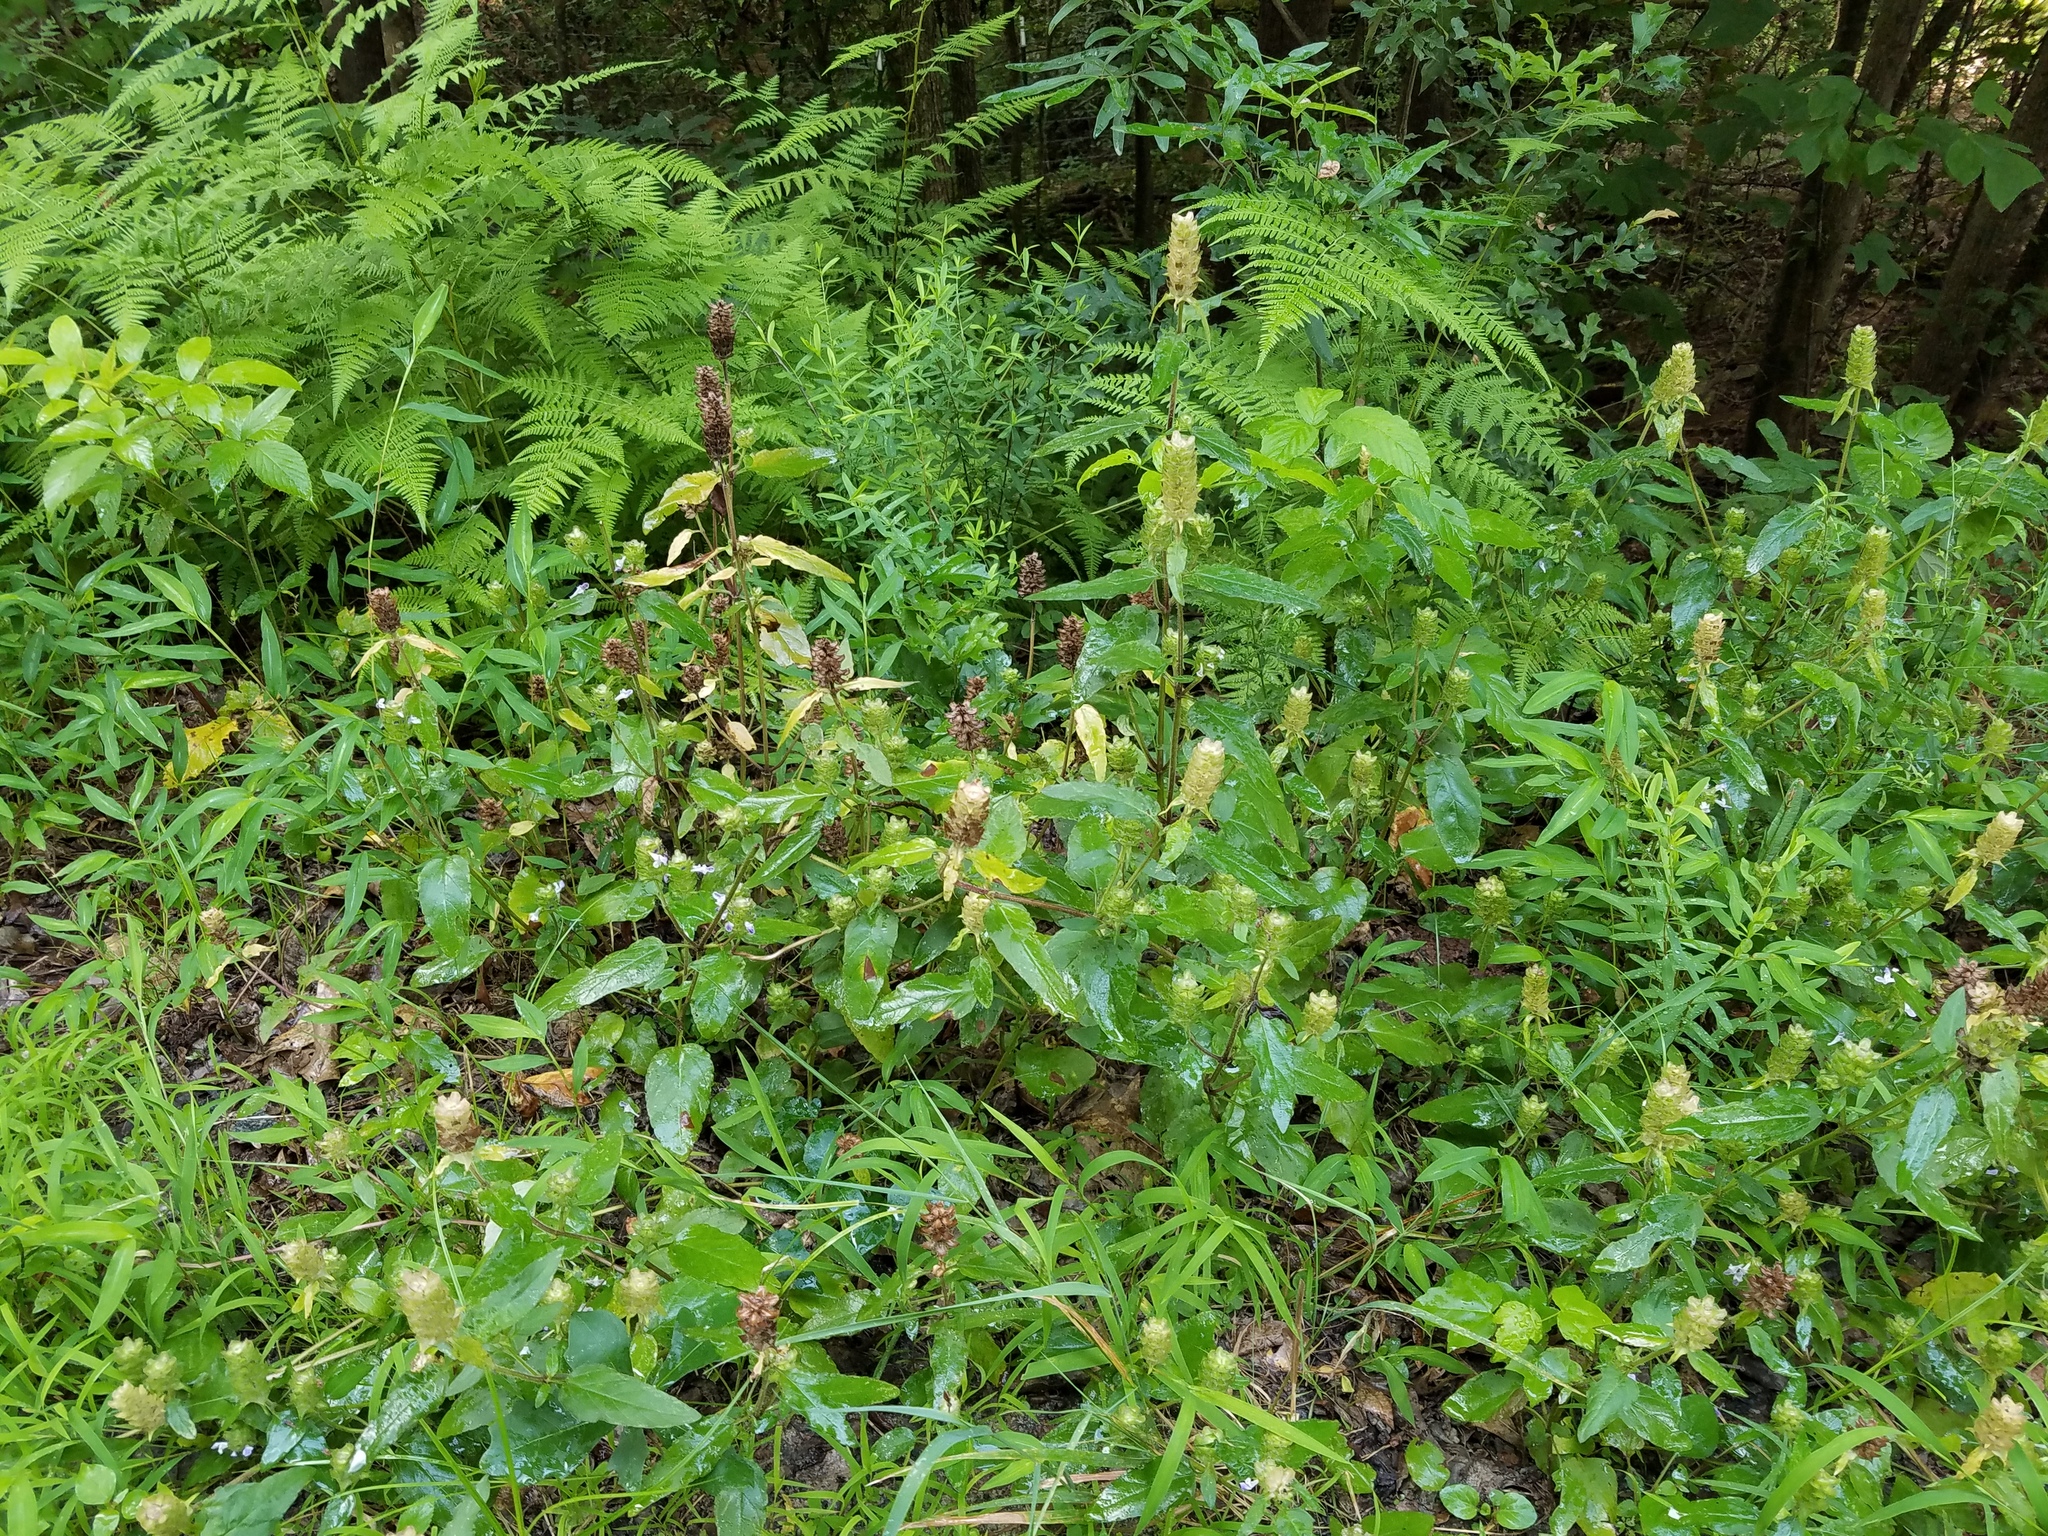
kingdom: Plantae
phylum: Tracheophyta
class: Magnoliopsida
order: Lamiales
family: Lamiaceae
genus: Prunella
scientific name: Prunella vulgaris
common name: Heal-all
